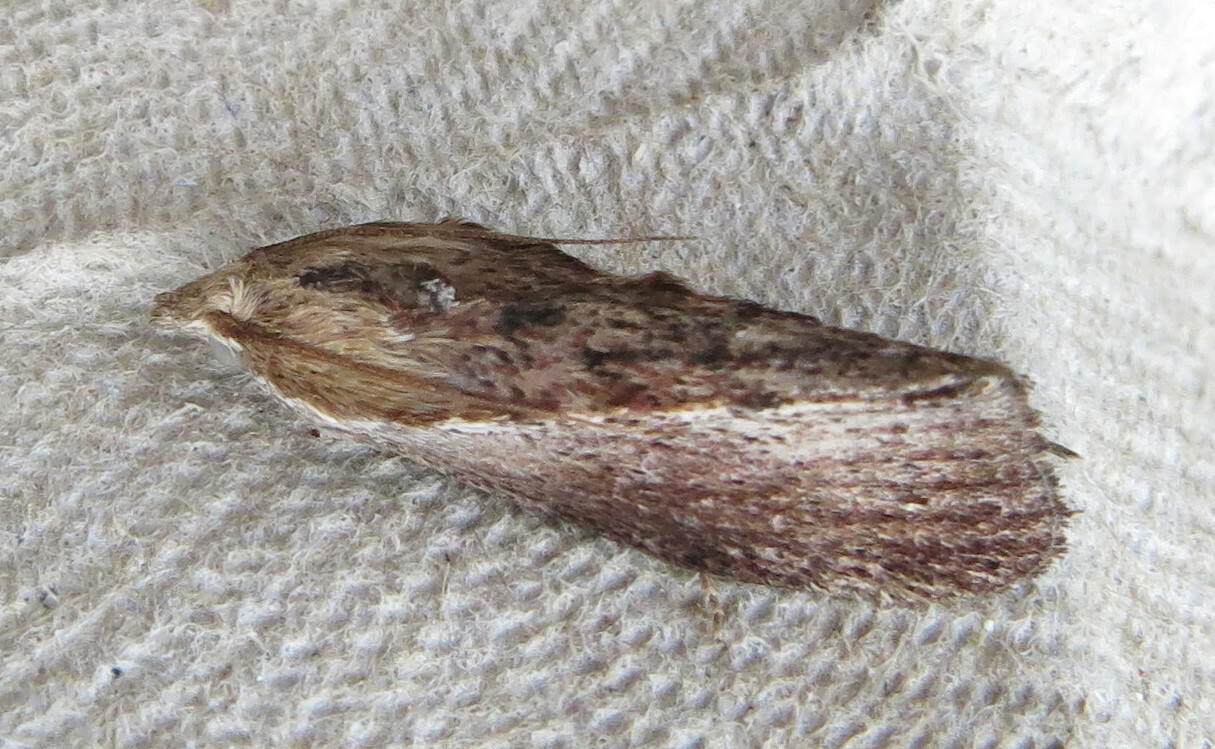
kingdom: Animalia
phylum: Arthropoda
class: Insecta
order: Lepidoptera
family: Pyralidae
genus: Galleria
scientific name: Galleria mellonella
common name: Greater wax moth
